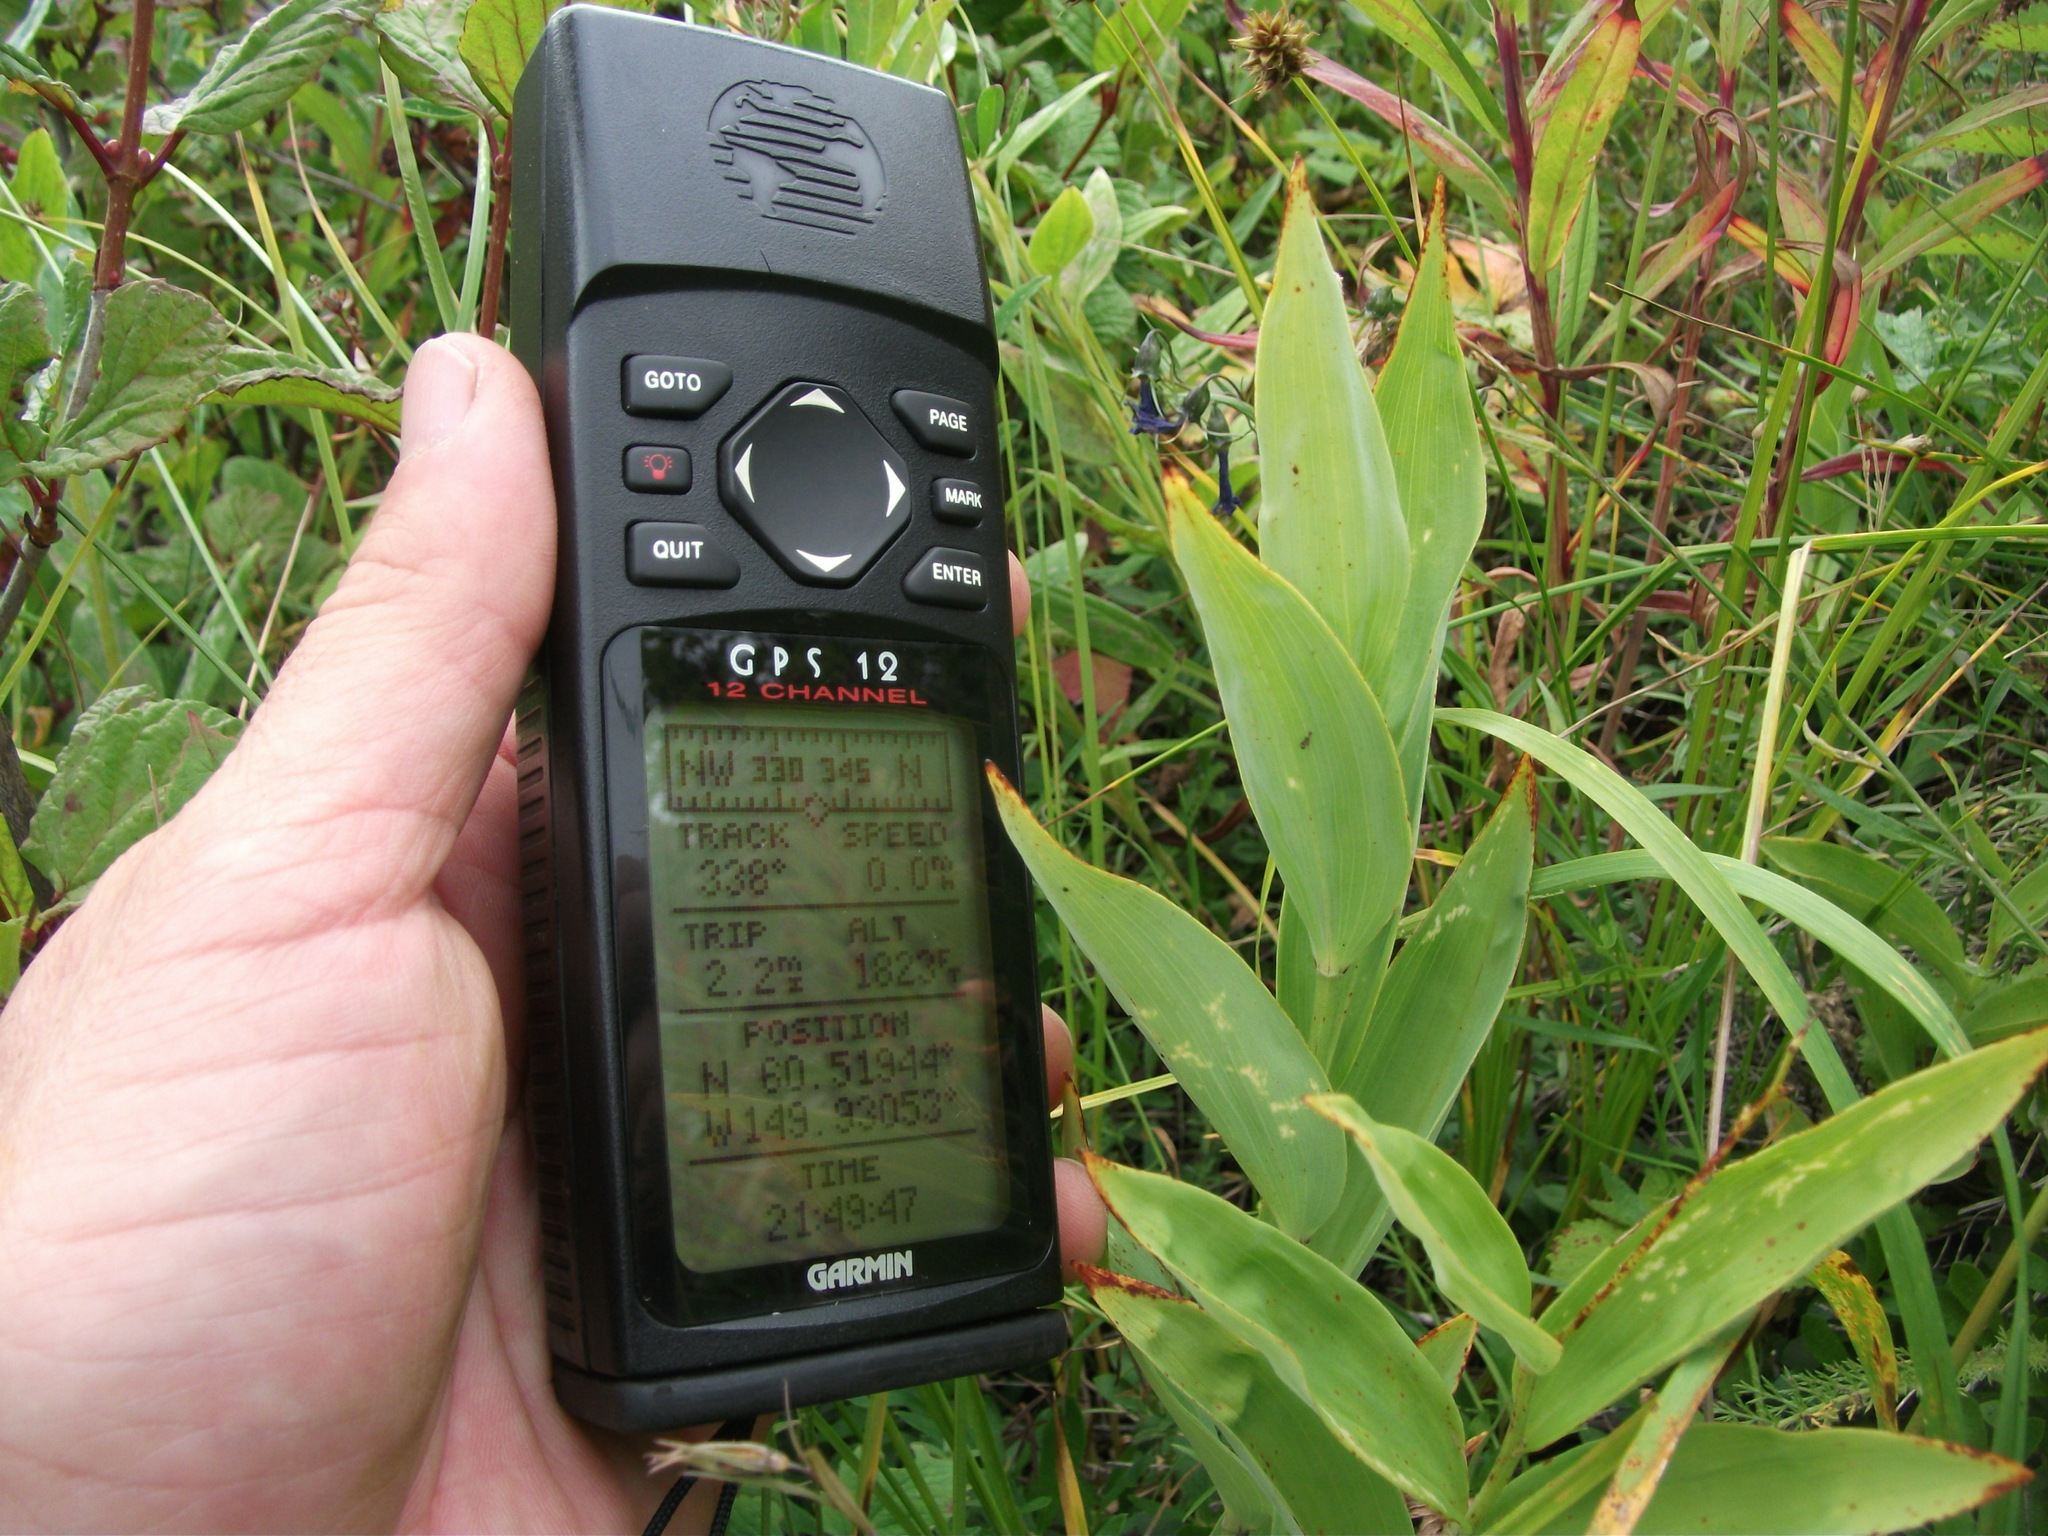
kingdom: Plantae
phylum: Tracheophyta
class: Liliopsida
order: Asparagales
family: Asparagaceae
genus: Maianthemum
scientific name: Maianthemum stellatum
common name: Little false solomon's seal
